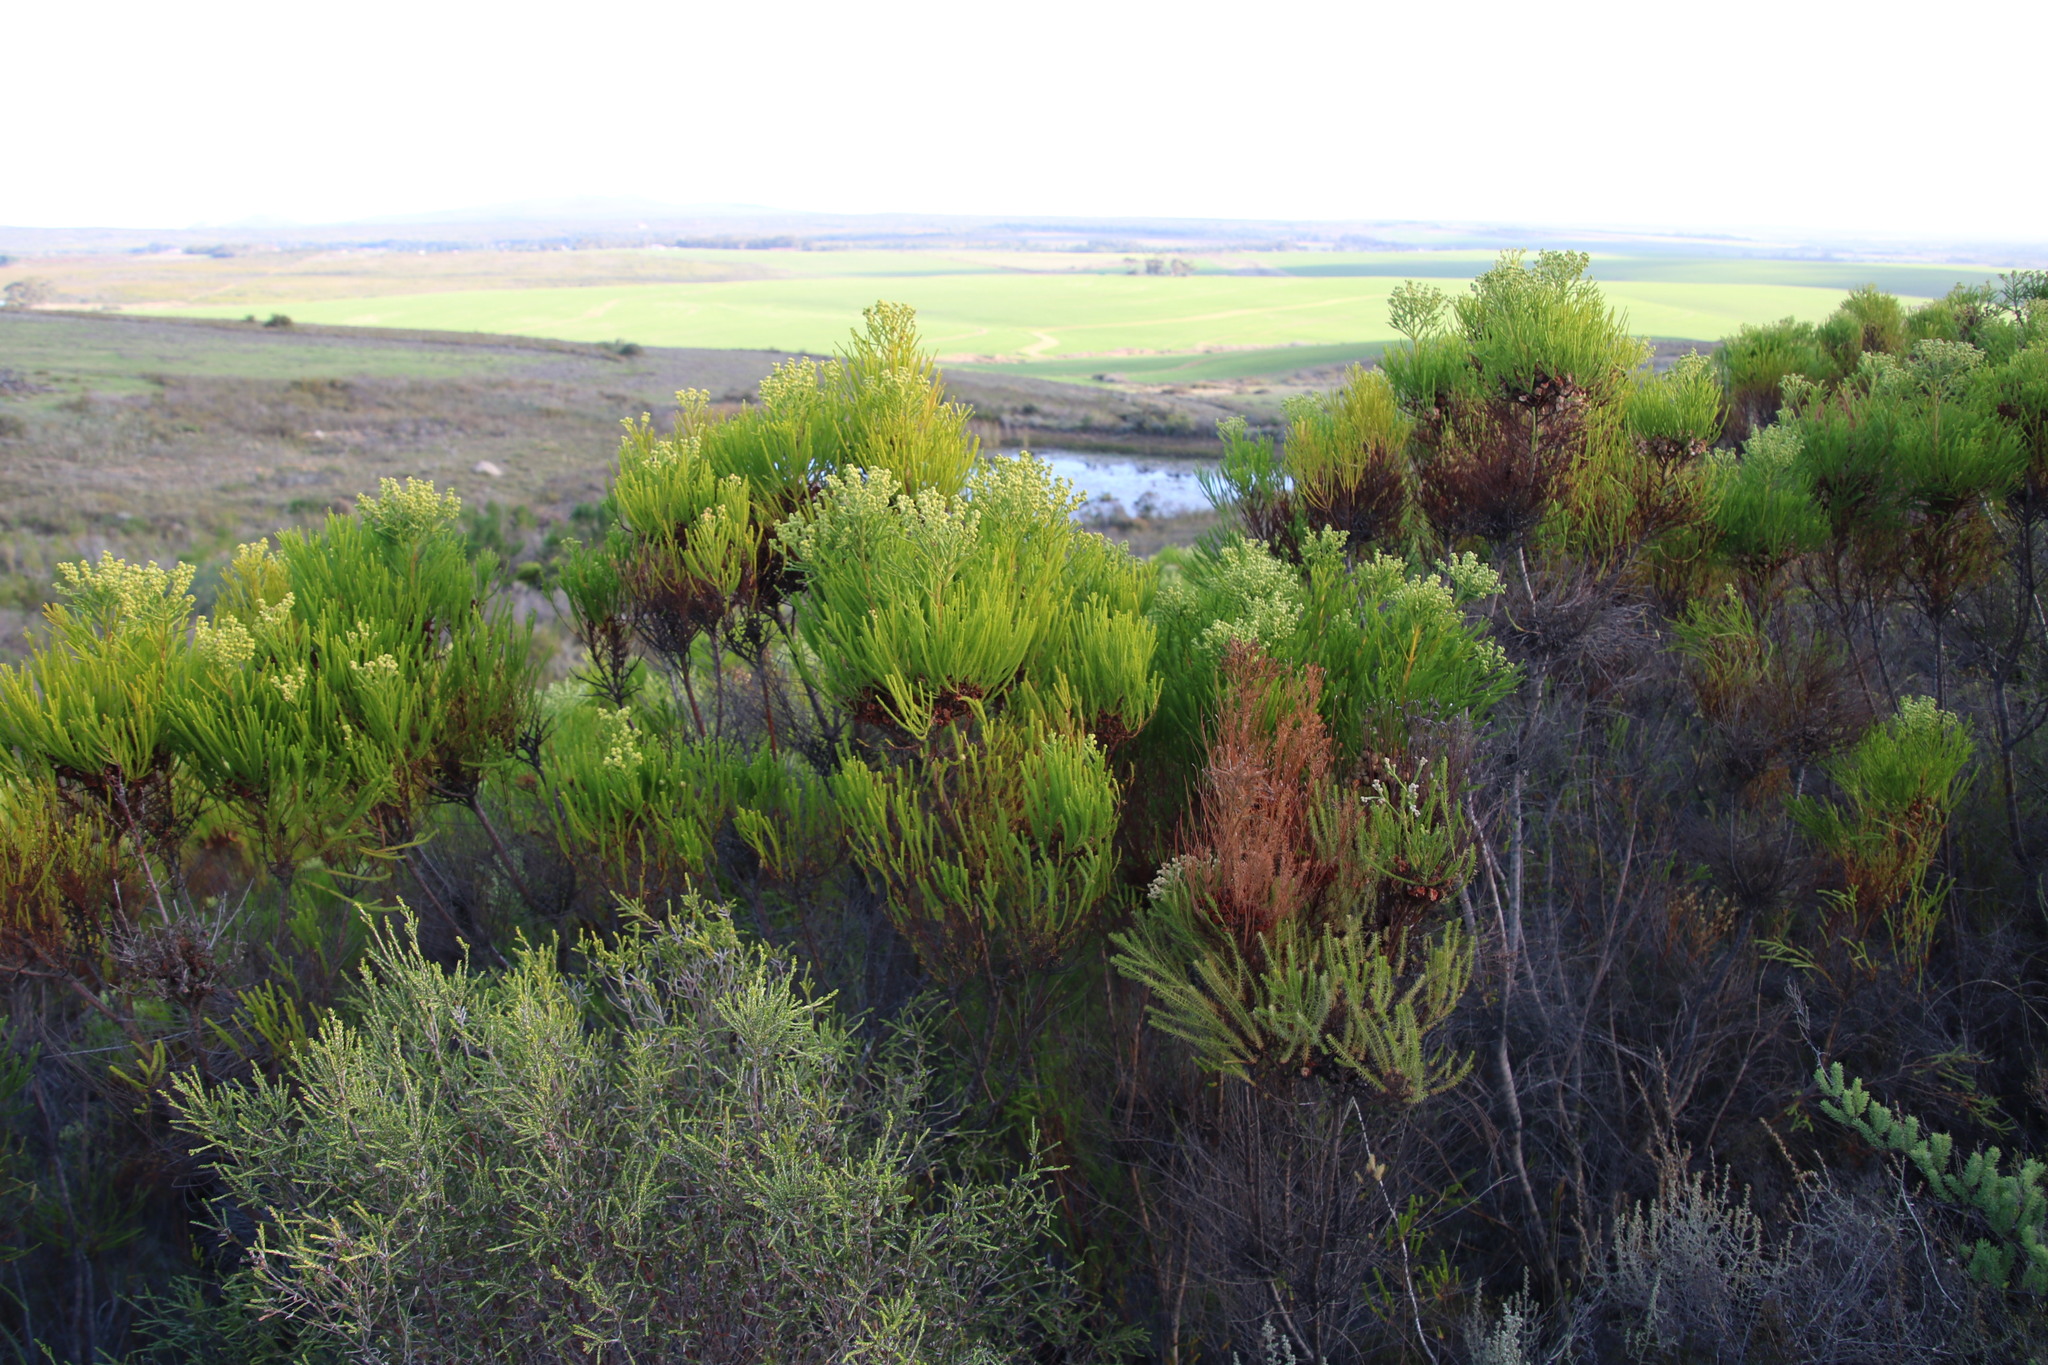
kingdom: Plantae
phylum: Tracheophyta
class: Magnoliopsida
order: Bruniales
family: Bruniaceae
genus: Berzelia
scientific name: Berzelia lanuginosa
